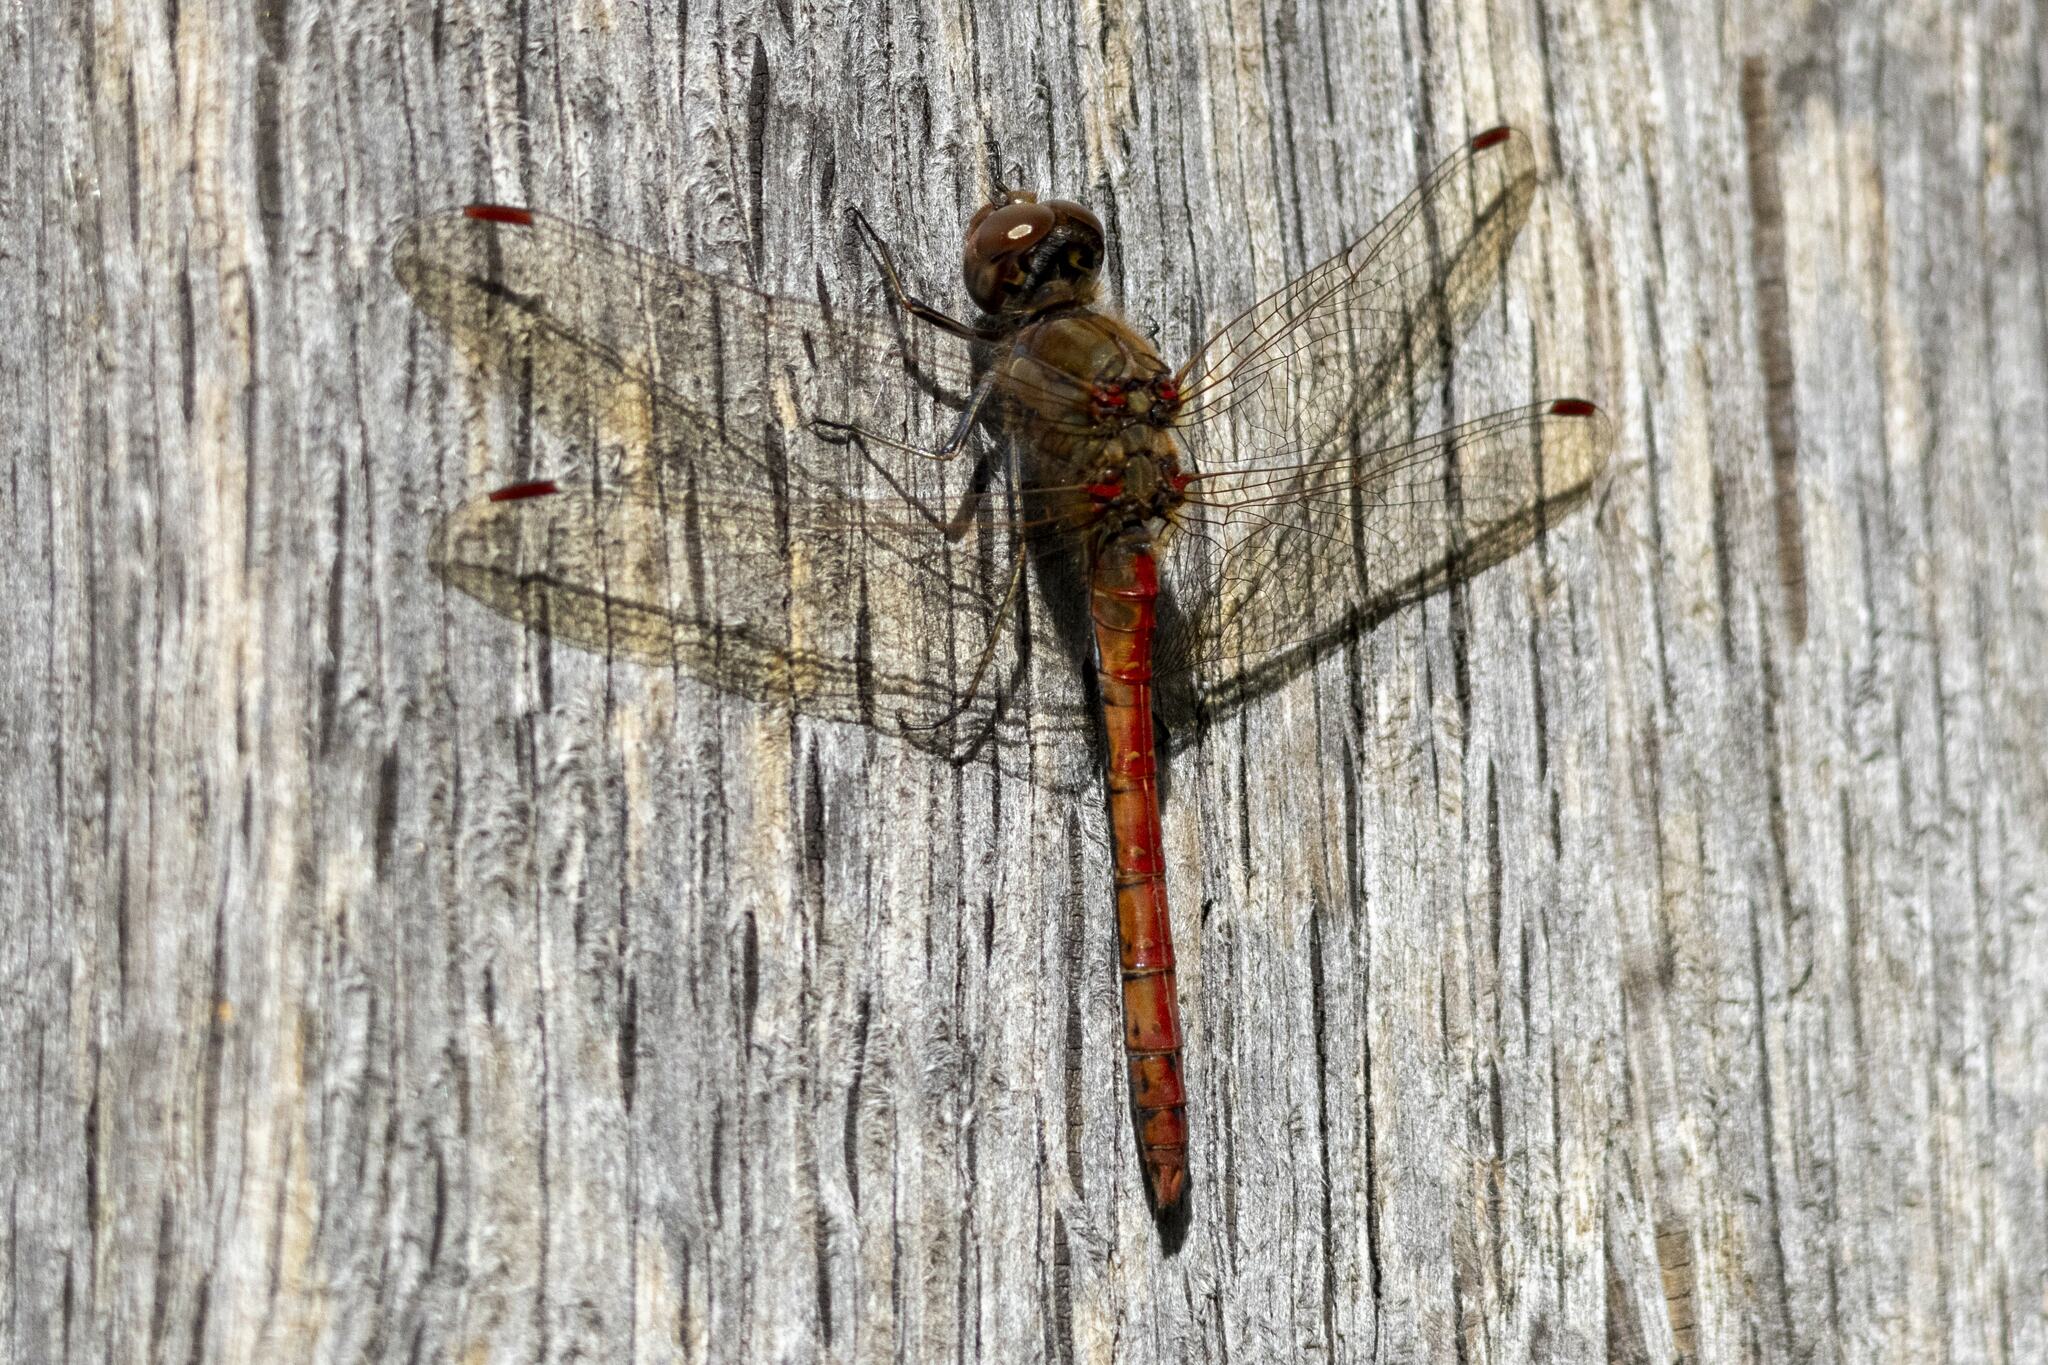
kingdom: Animalia
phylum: Arthropoda
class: Insecta
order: Odonata
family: Libellulidae
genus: Sympetrum
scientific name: Sympetrum striolatum
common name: Common darter
